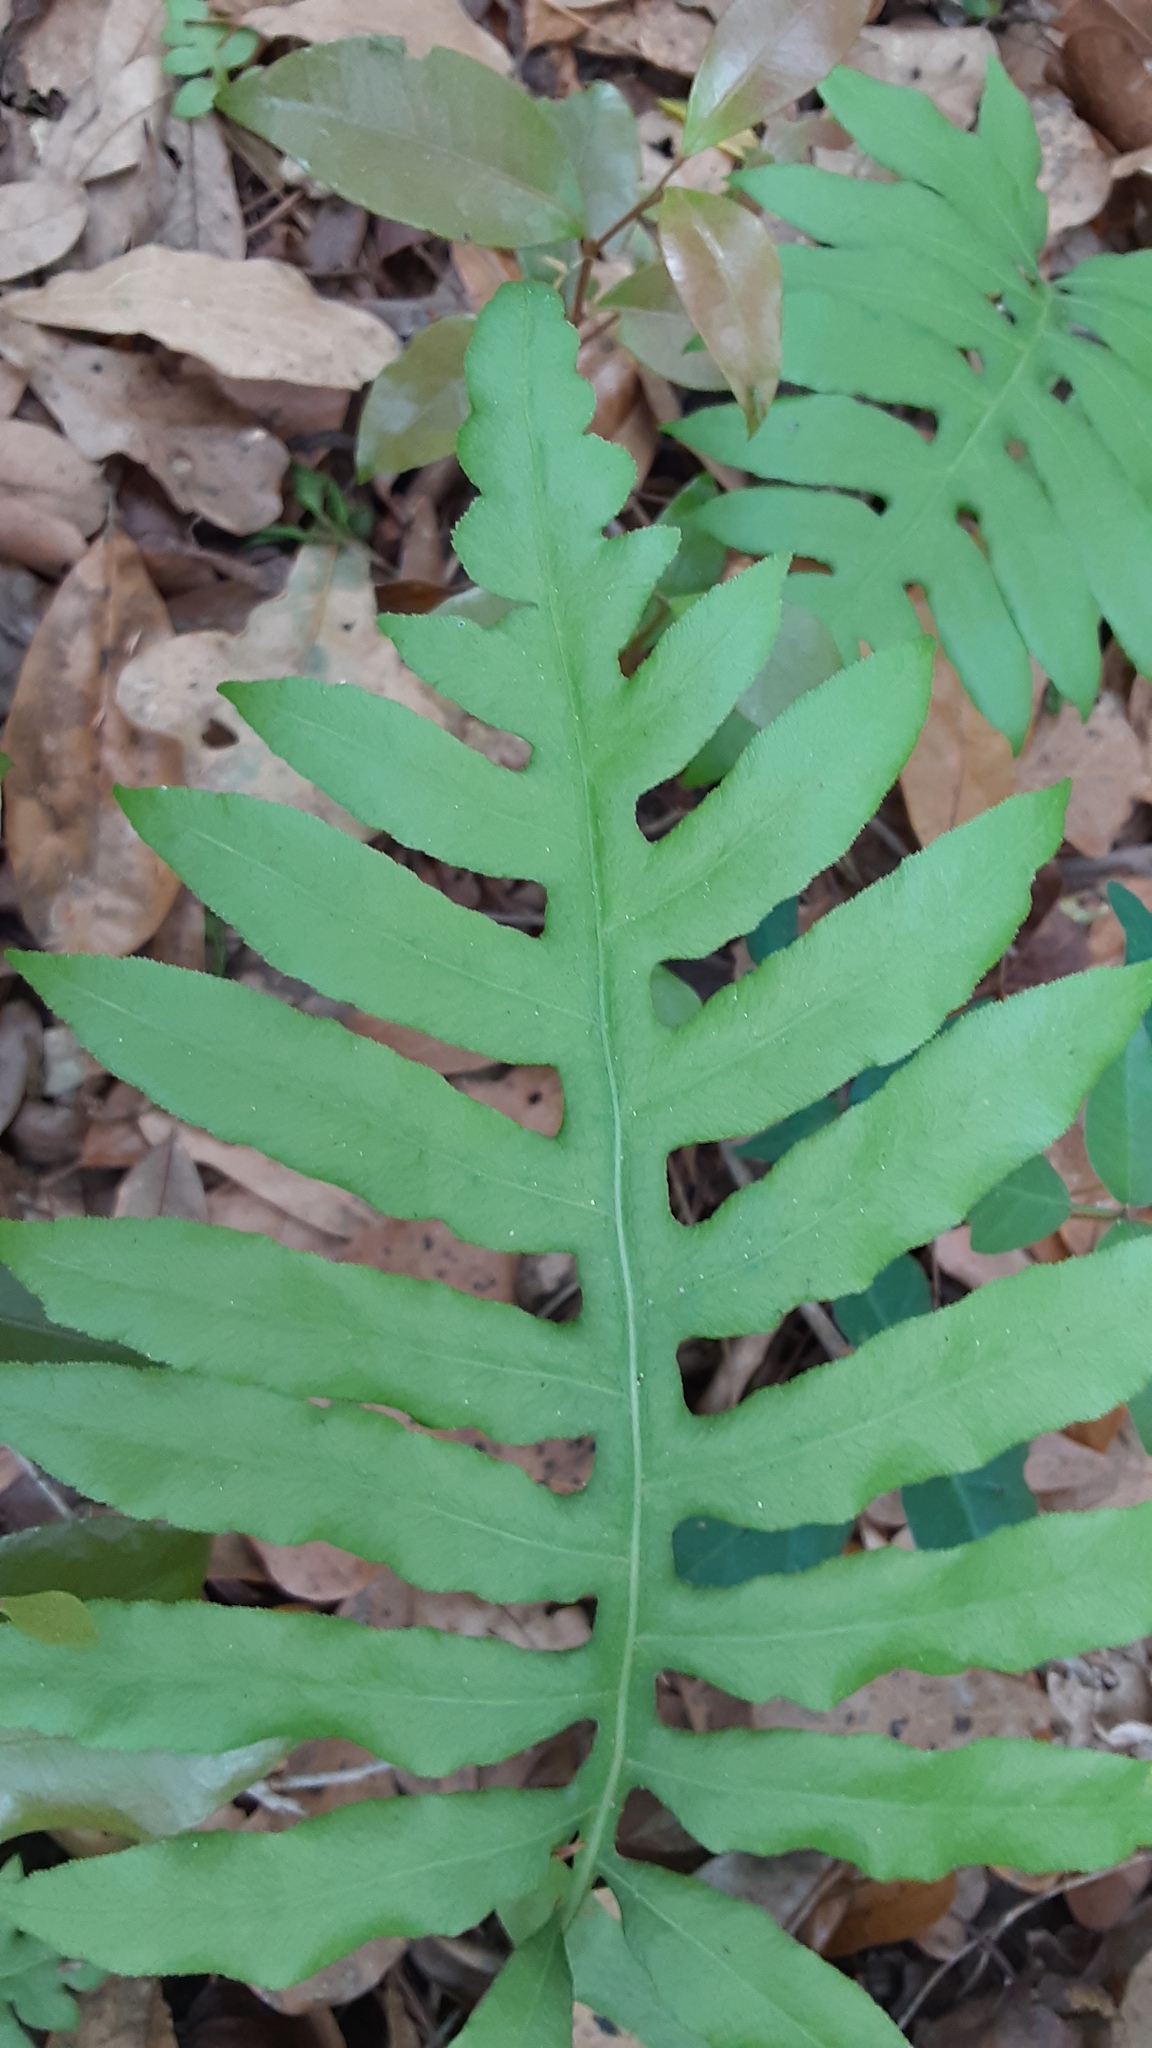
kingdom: Plantae
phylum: Tracheophyta
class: Polypodiopsida
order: Polypodiales
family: Blechnaceae
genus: Lorinseria
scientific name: Lorinseria areolata
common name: Dwarf chain fern
